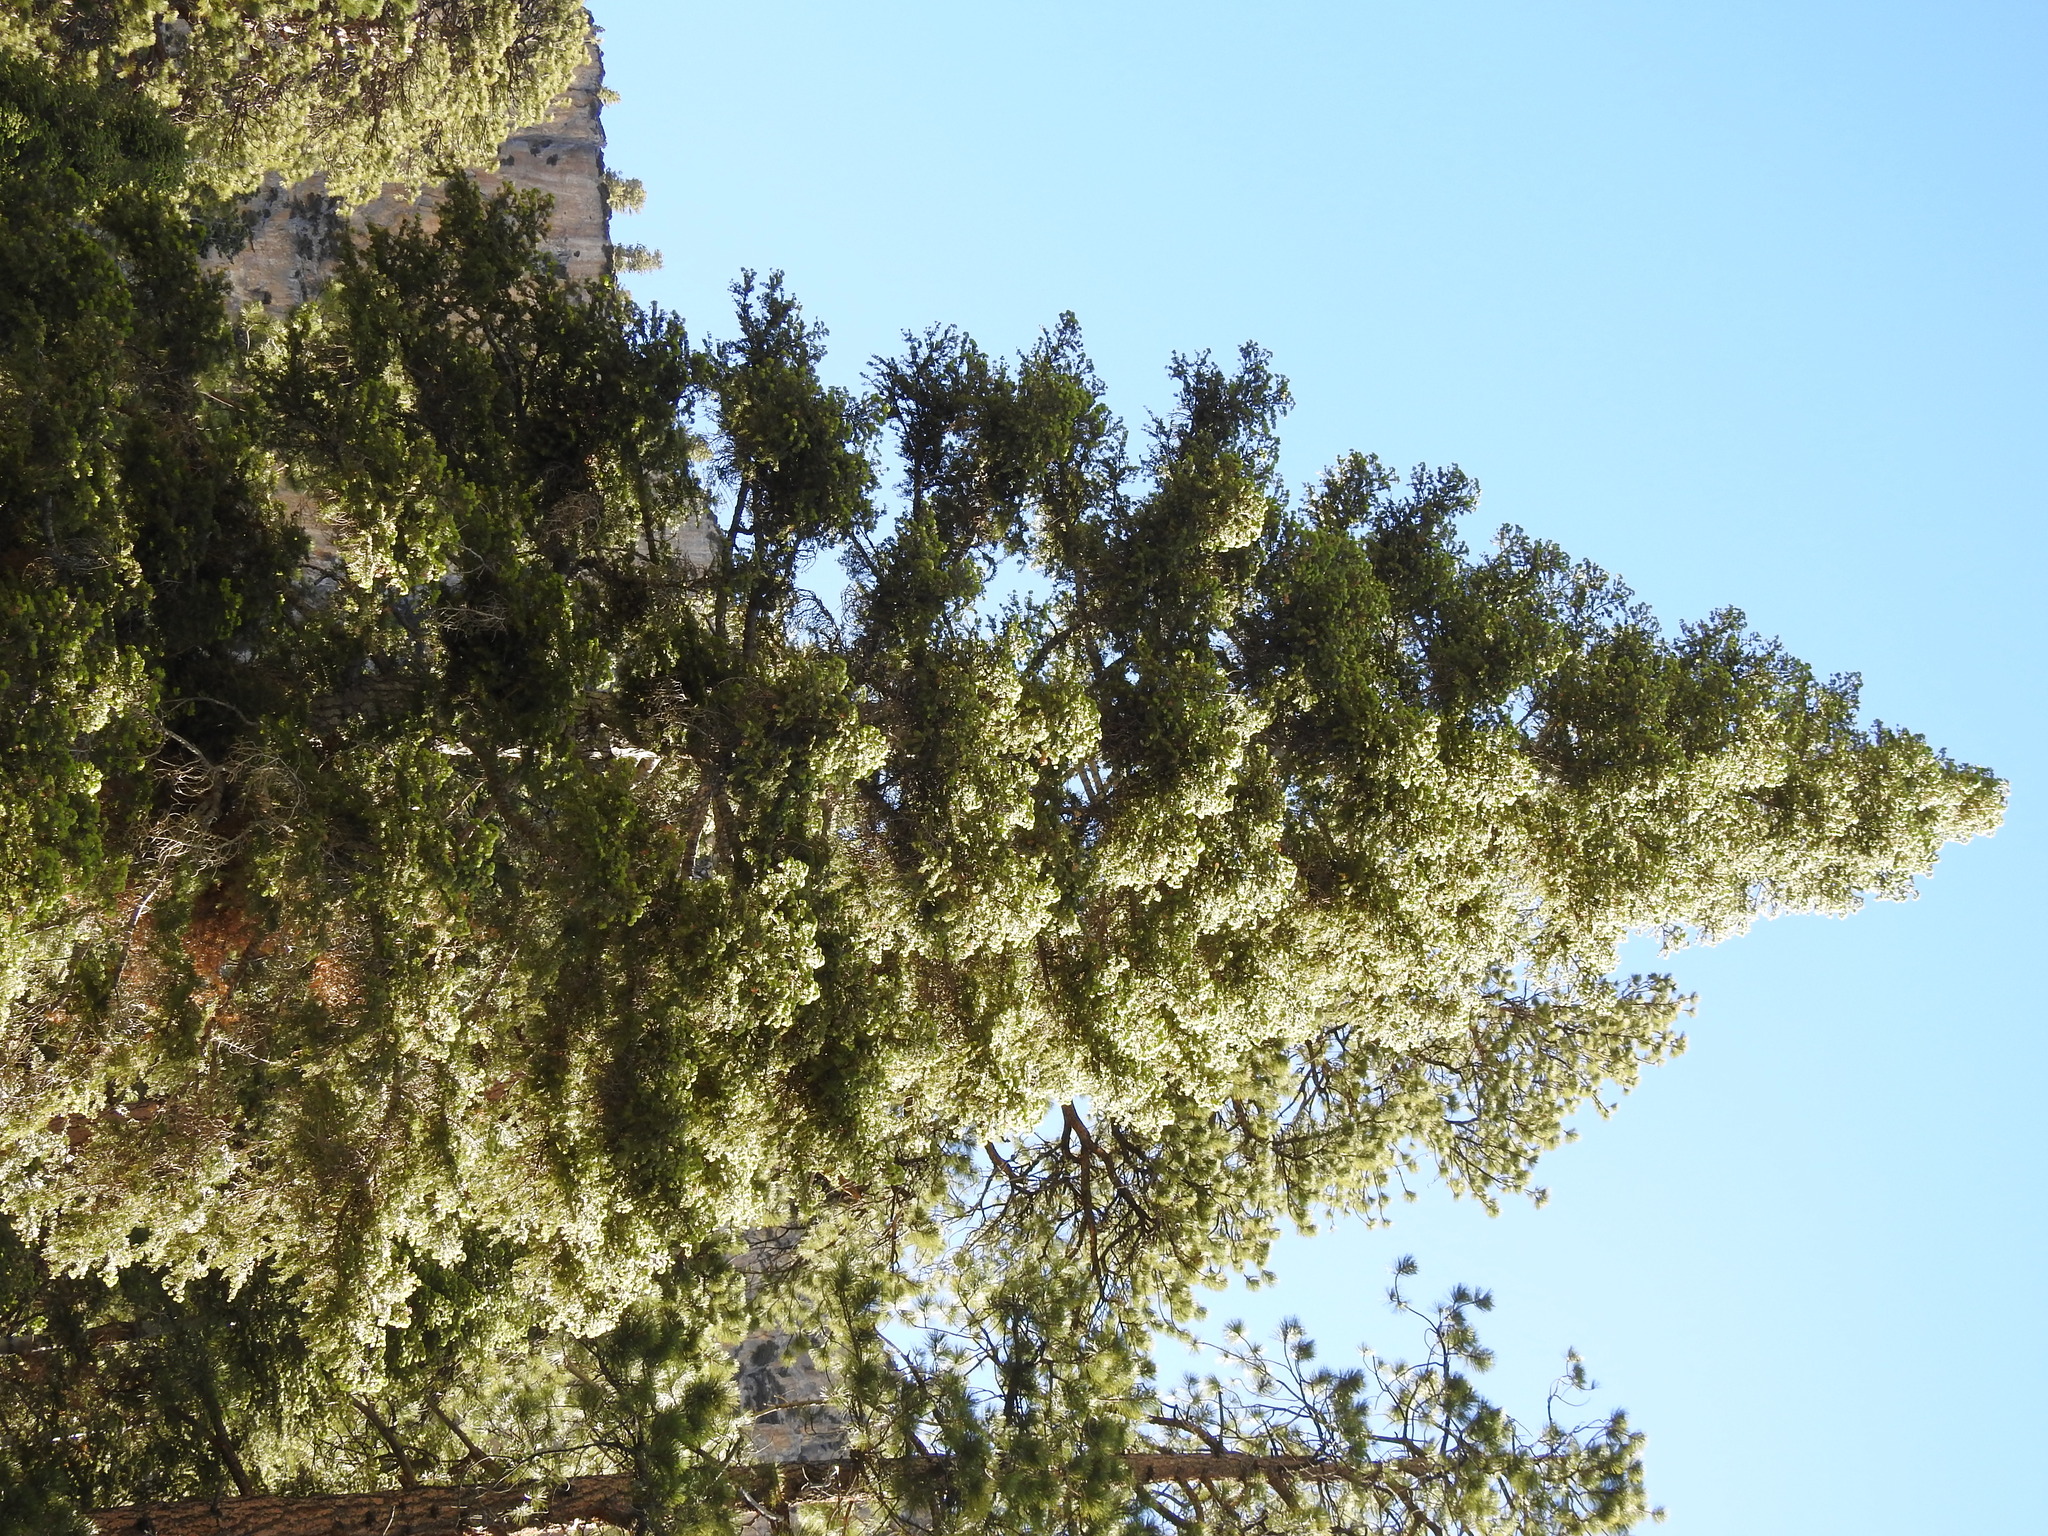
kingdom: Plantae
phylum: Tracheophyta
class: Pinopsida
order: Pinales
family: Pinaceae
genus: Abies
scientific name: Abies concolor
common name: Colorado fir
